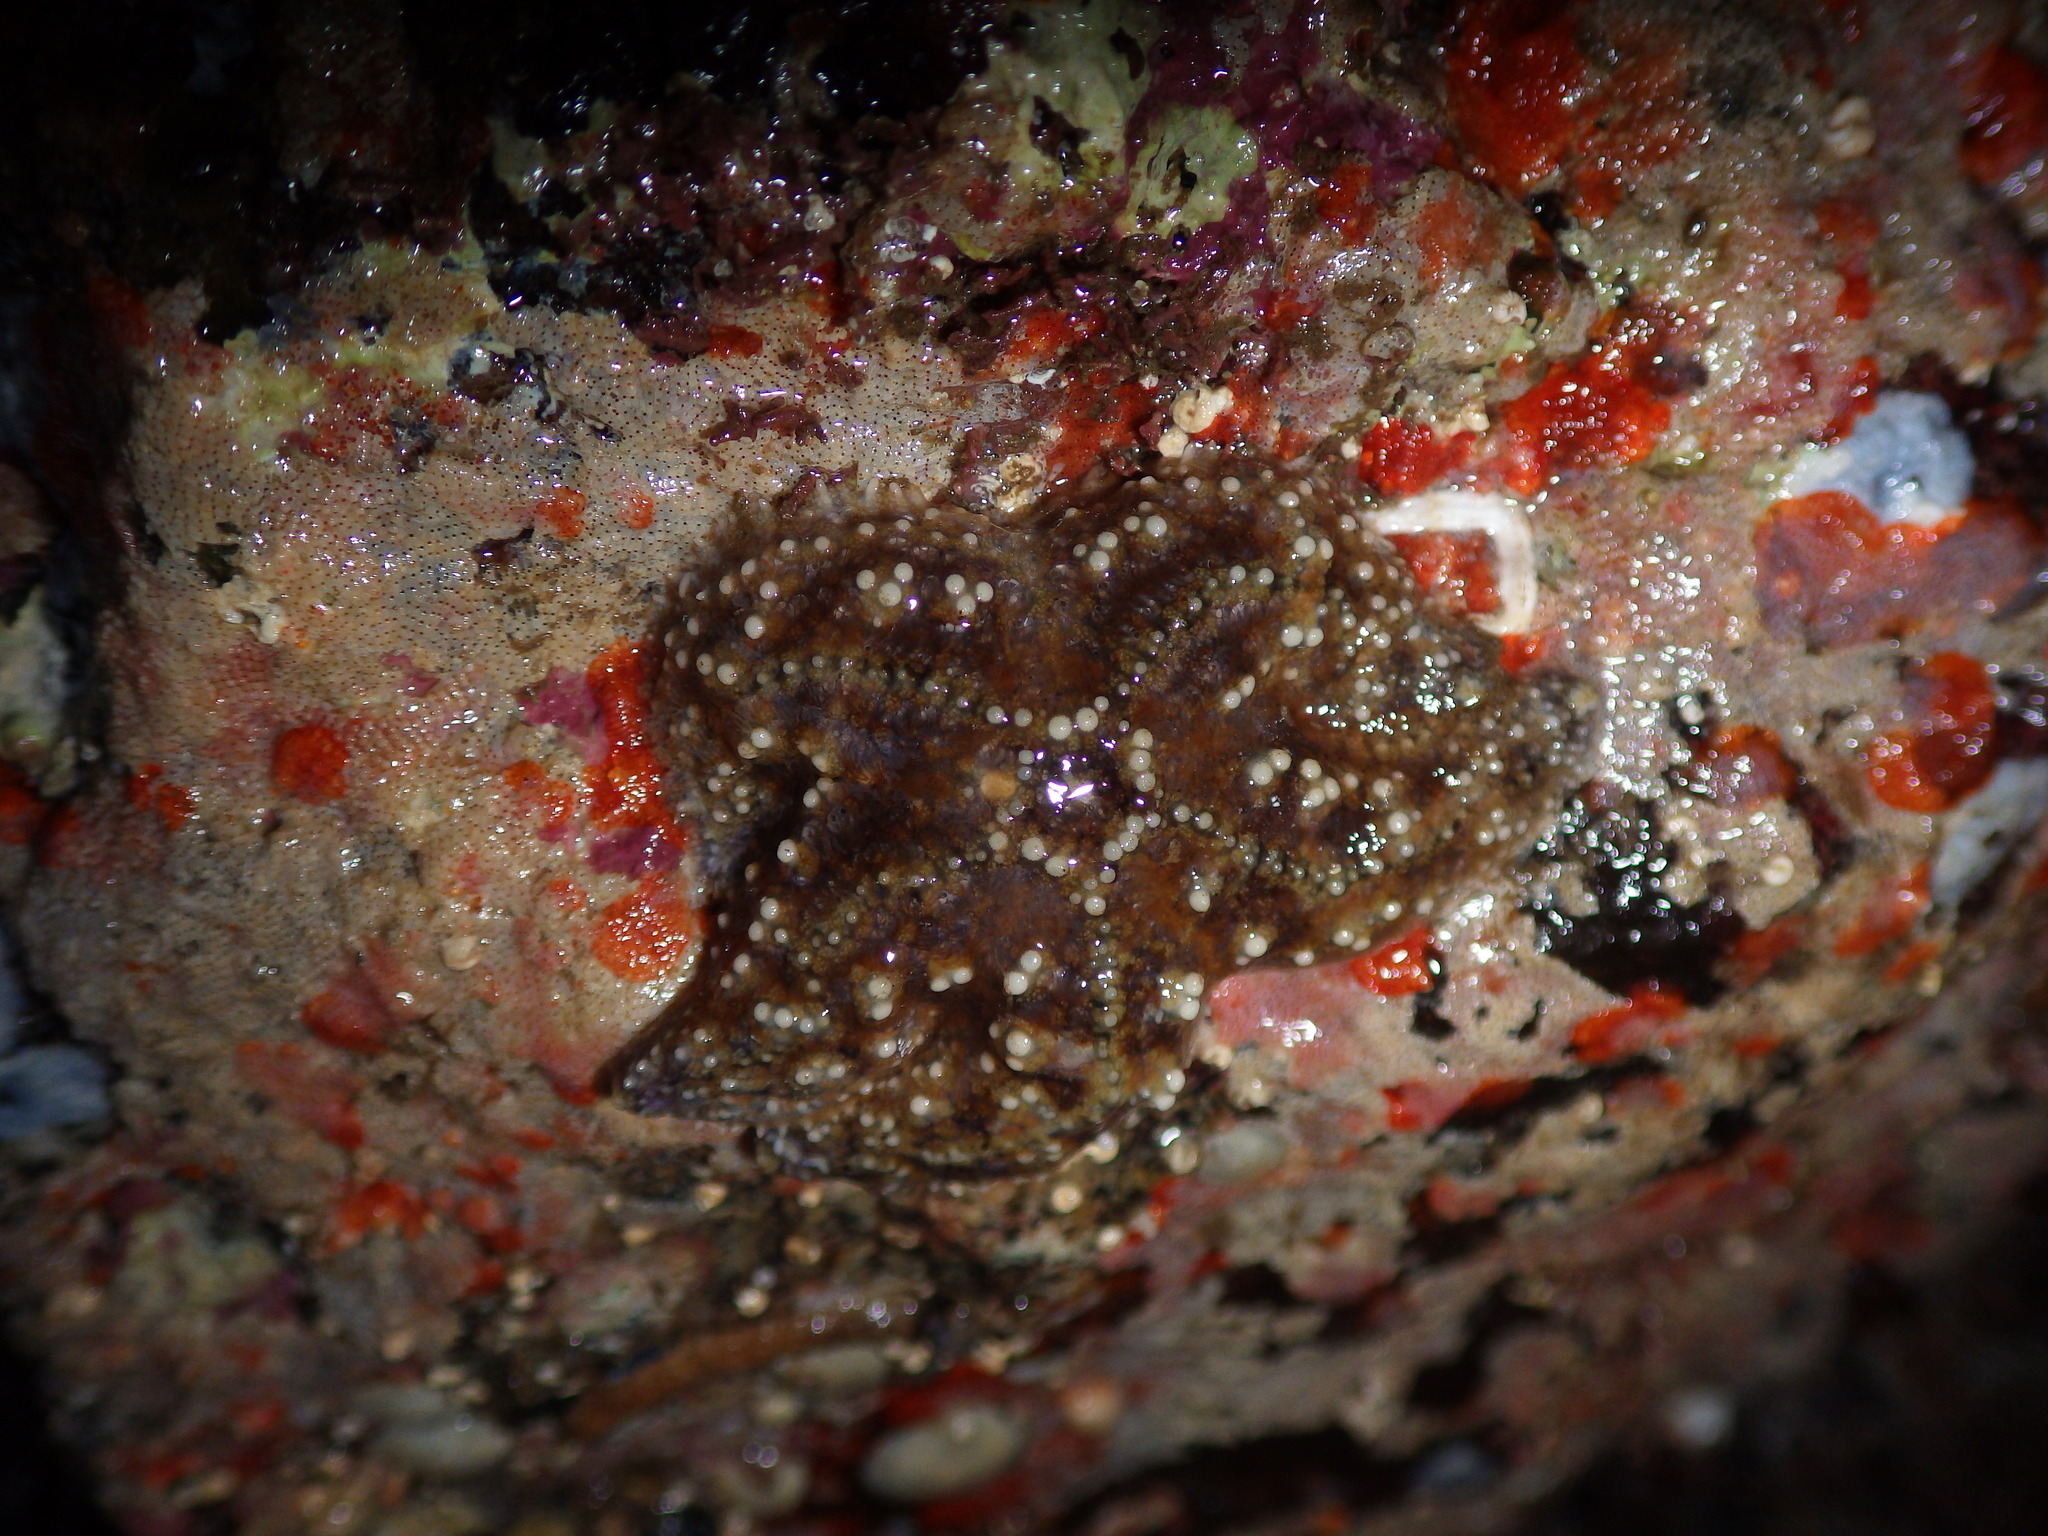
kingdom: Animalia
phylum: Echinodermata
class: Asteroidea
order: Forcipulatida
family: Asteriidae
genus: Pisaster
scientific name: Pisaster ochraceus
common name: Ochre stars
